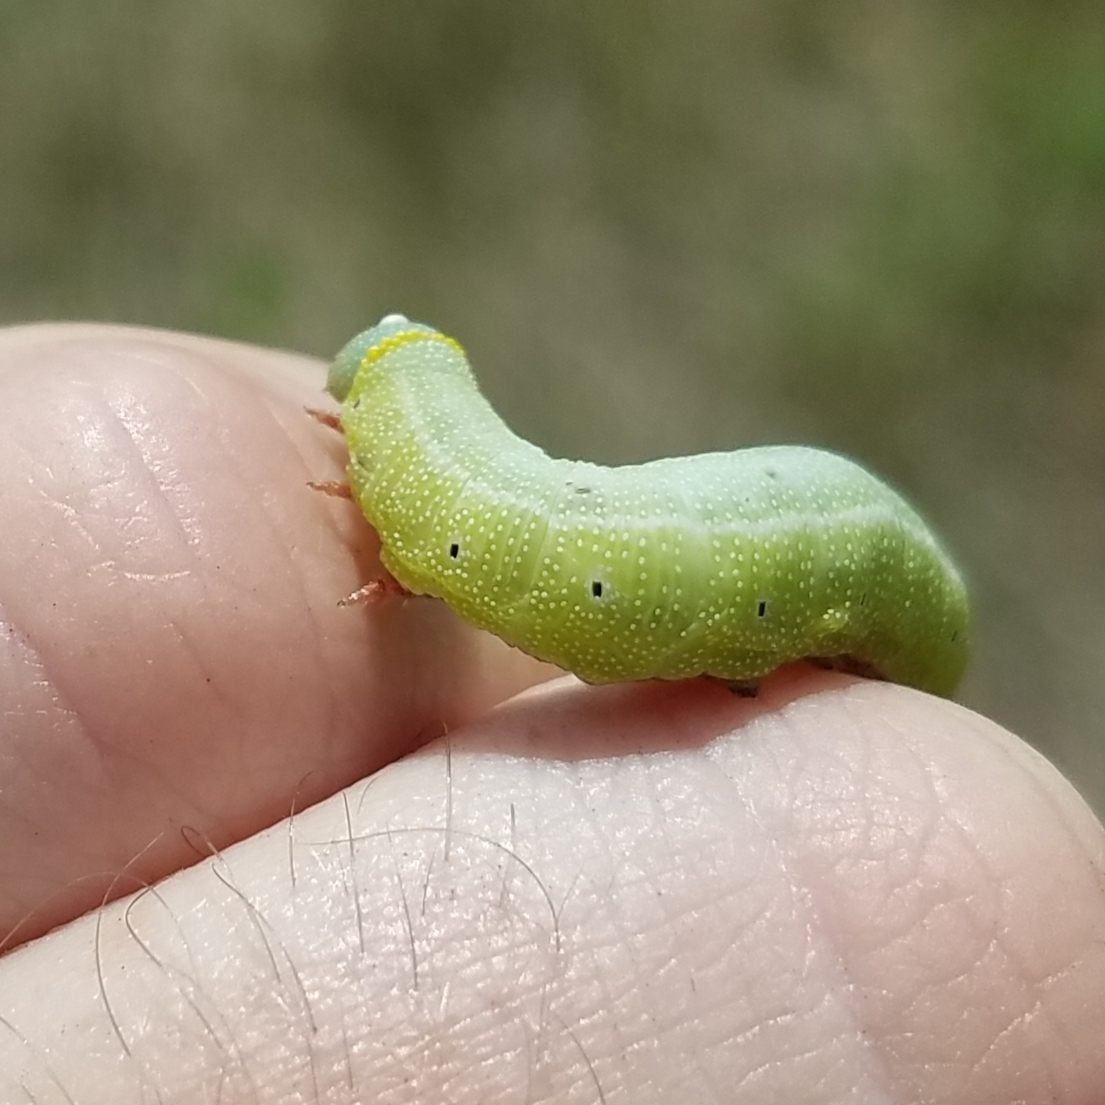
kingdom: Animalia
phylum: Arthropoda
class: Insecta
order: Lepidoptera
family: Sphingidae
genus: Hemaris
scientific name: Hemaris diffinis
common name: Bumblebee moth
